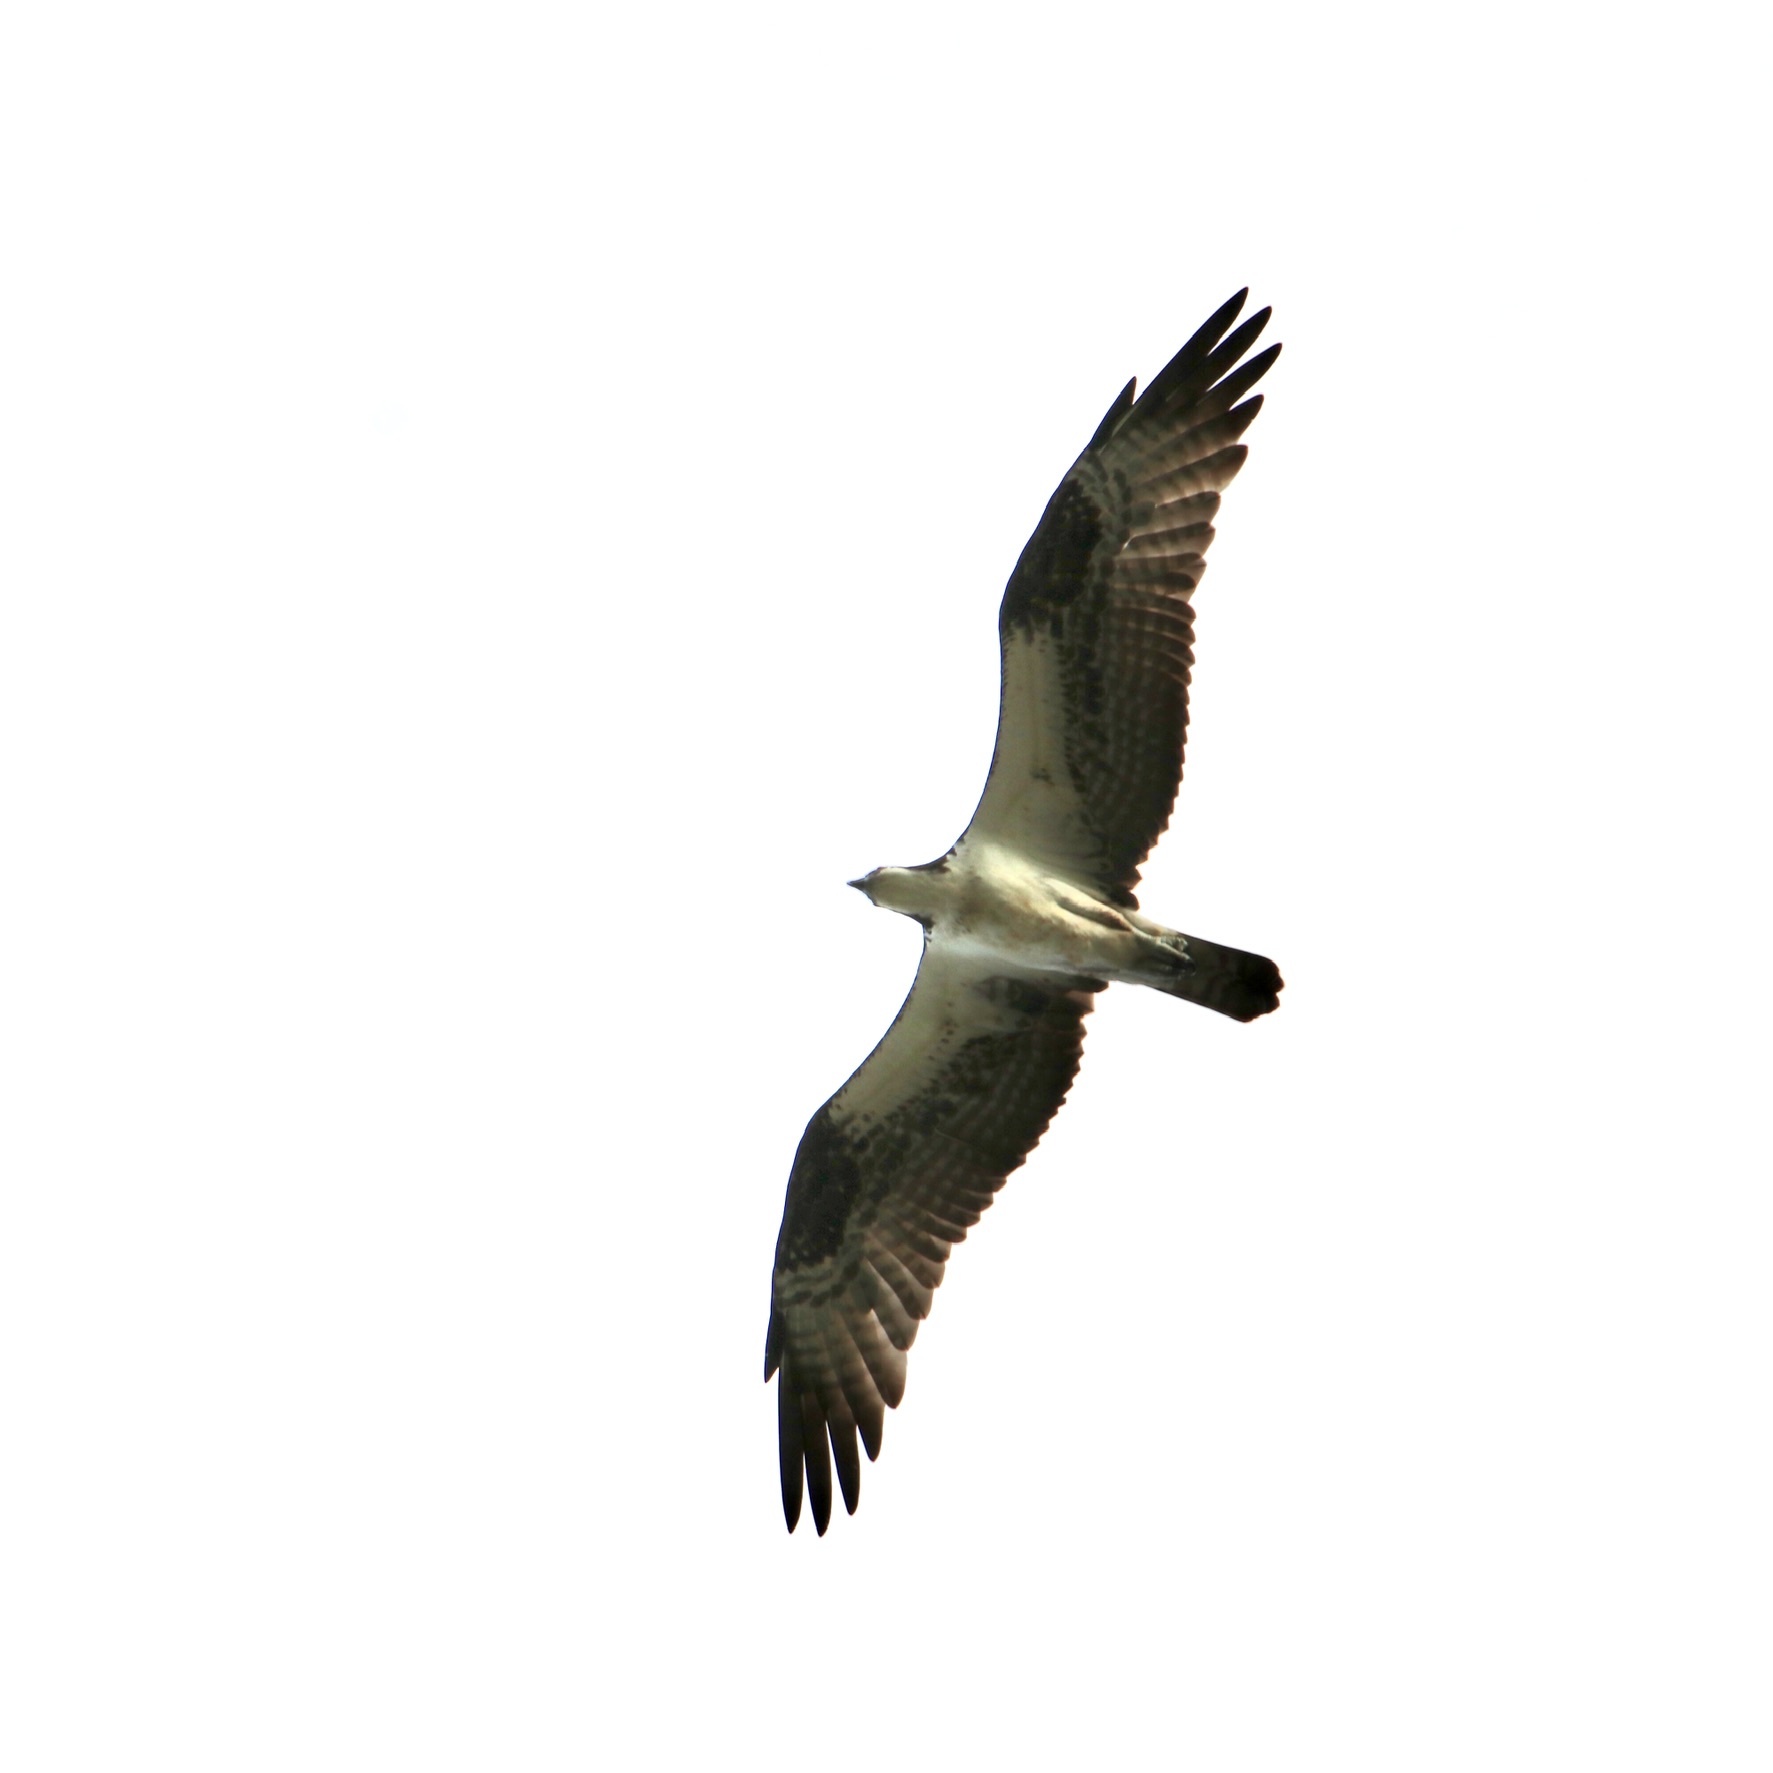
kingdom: Animalia
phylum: Chordata
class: Aves
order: Accipitriformes
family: Pandionidae
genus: Pandion
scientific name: Pandion haliaetus
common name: Osprey
